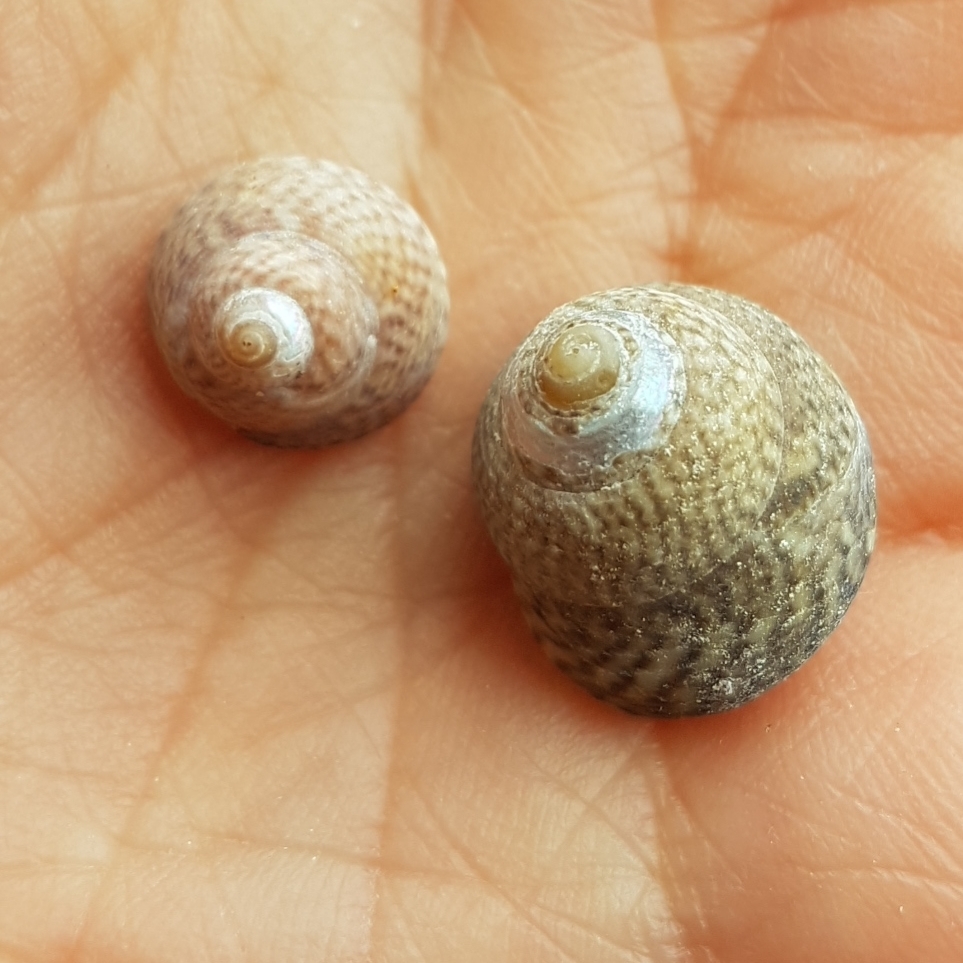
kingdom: Animalia
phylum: Mollusca
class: Gastropoda
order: Trochida
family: Trochidae
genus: Steromphala
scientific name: Steromphala cineraria
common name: Grey top shell
